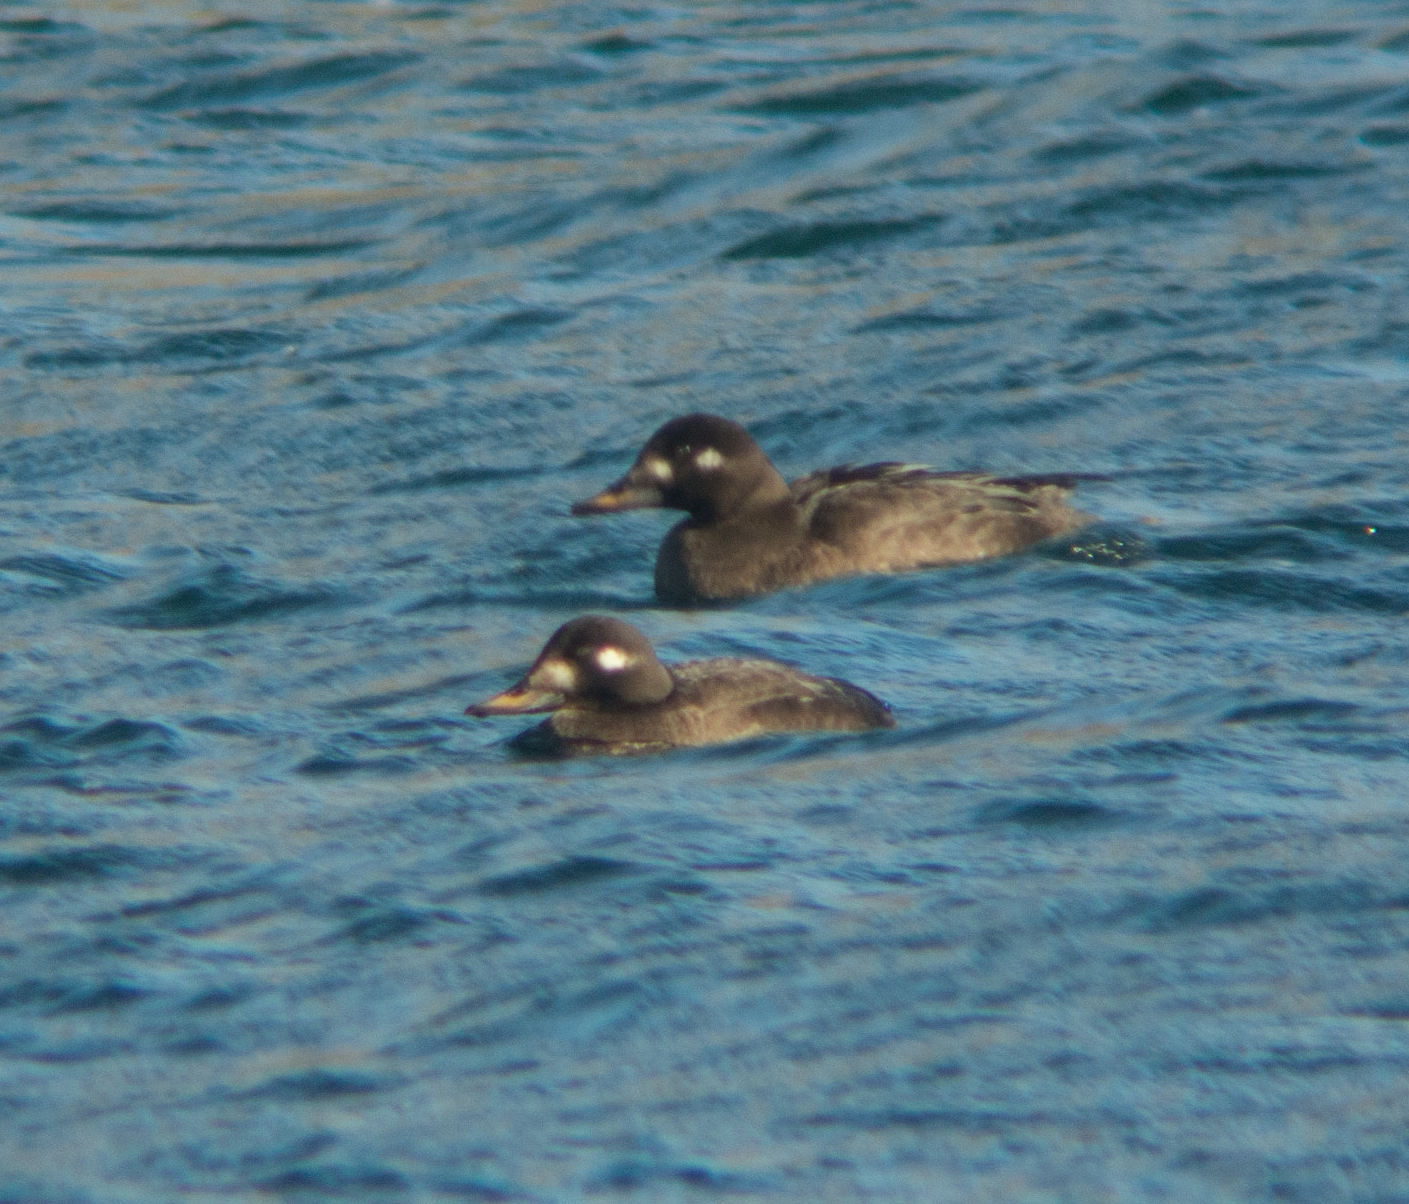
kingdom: Animalia
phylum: Chordata
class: Aves
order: Anseriformes
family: Anatidae
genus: Melanitta
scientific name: Melanitta fusca
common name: Velvet scoter
